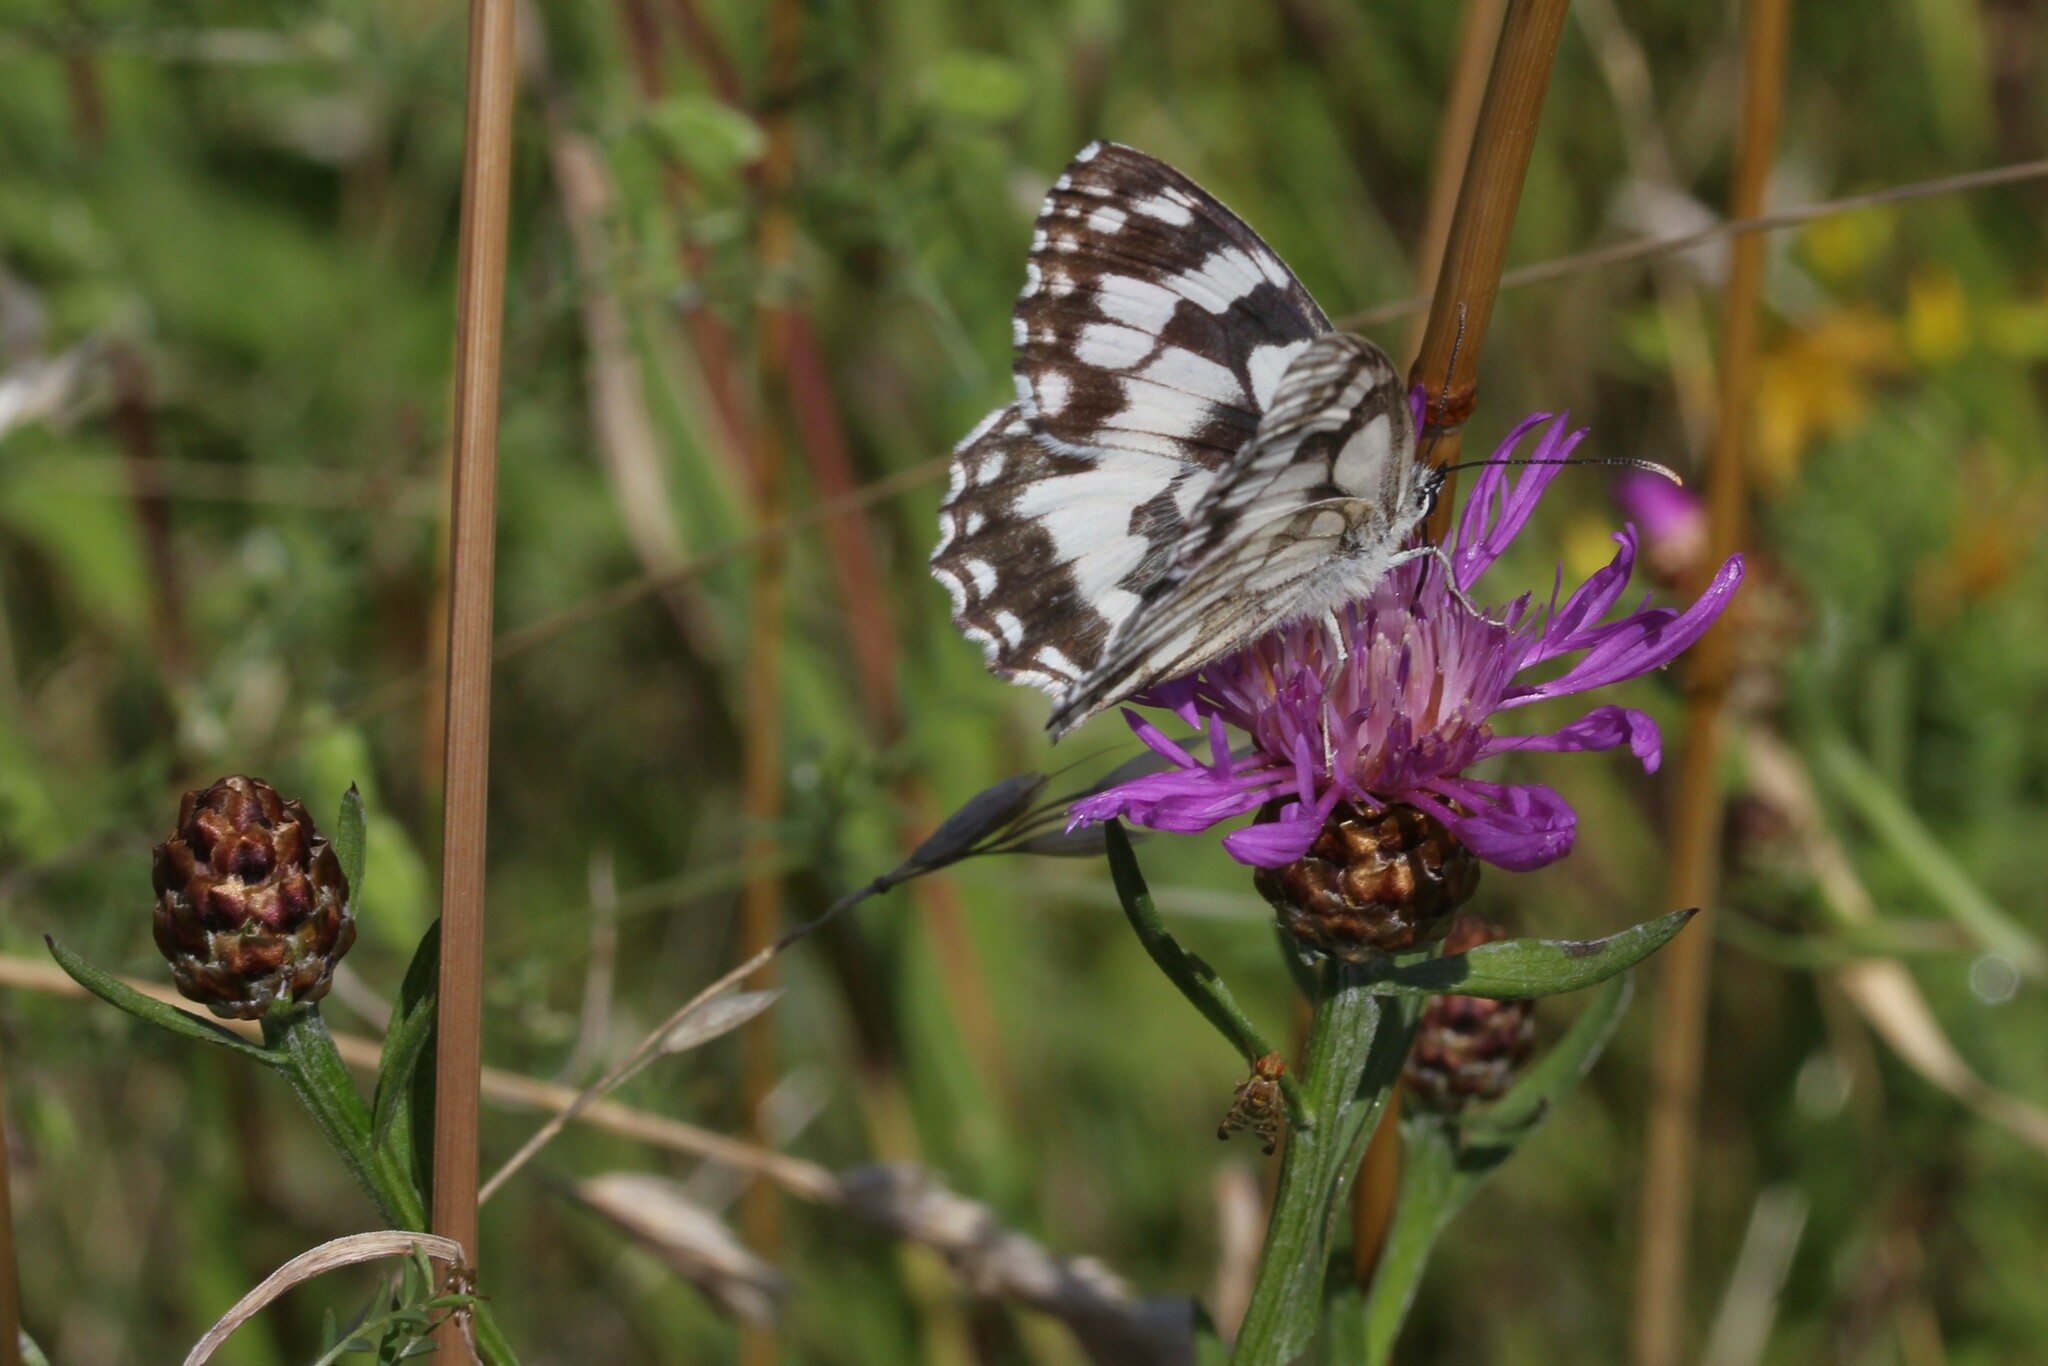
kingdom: Animalia
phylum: Arthropoda
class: Insecta
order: Lepidoptera
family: Nymphalidae
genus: Melanargia
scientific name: Melanargia galathea
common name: Marbled white
